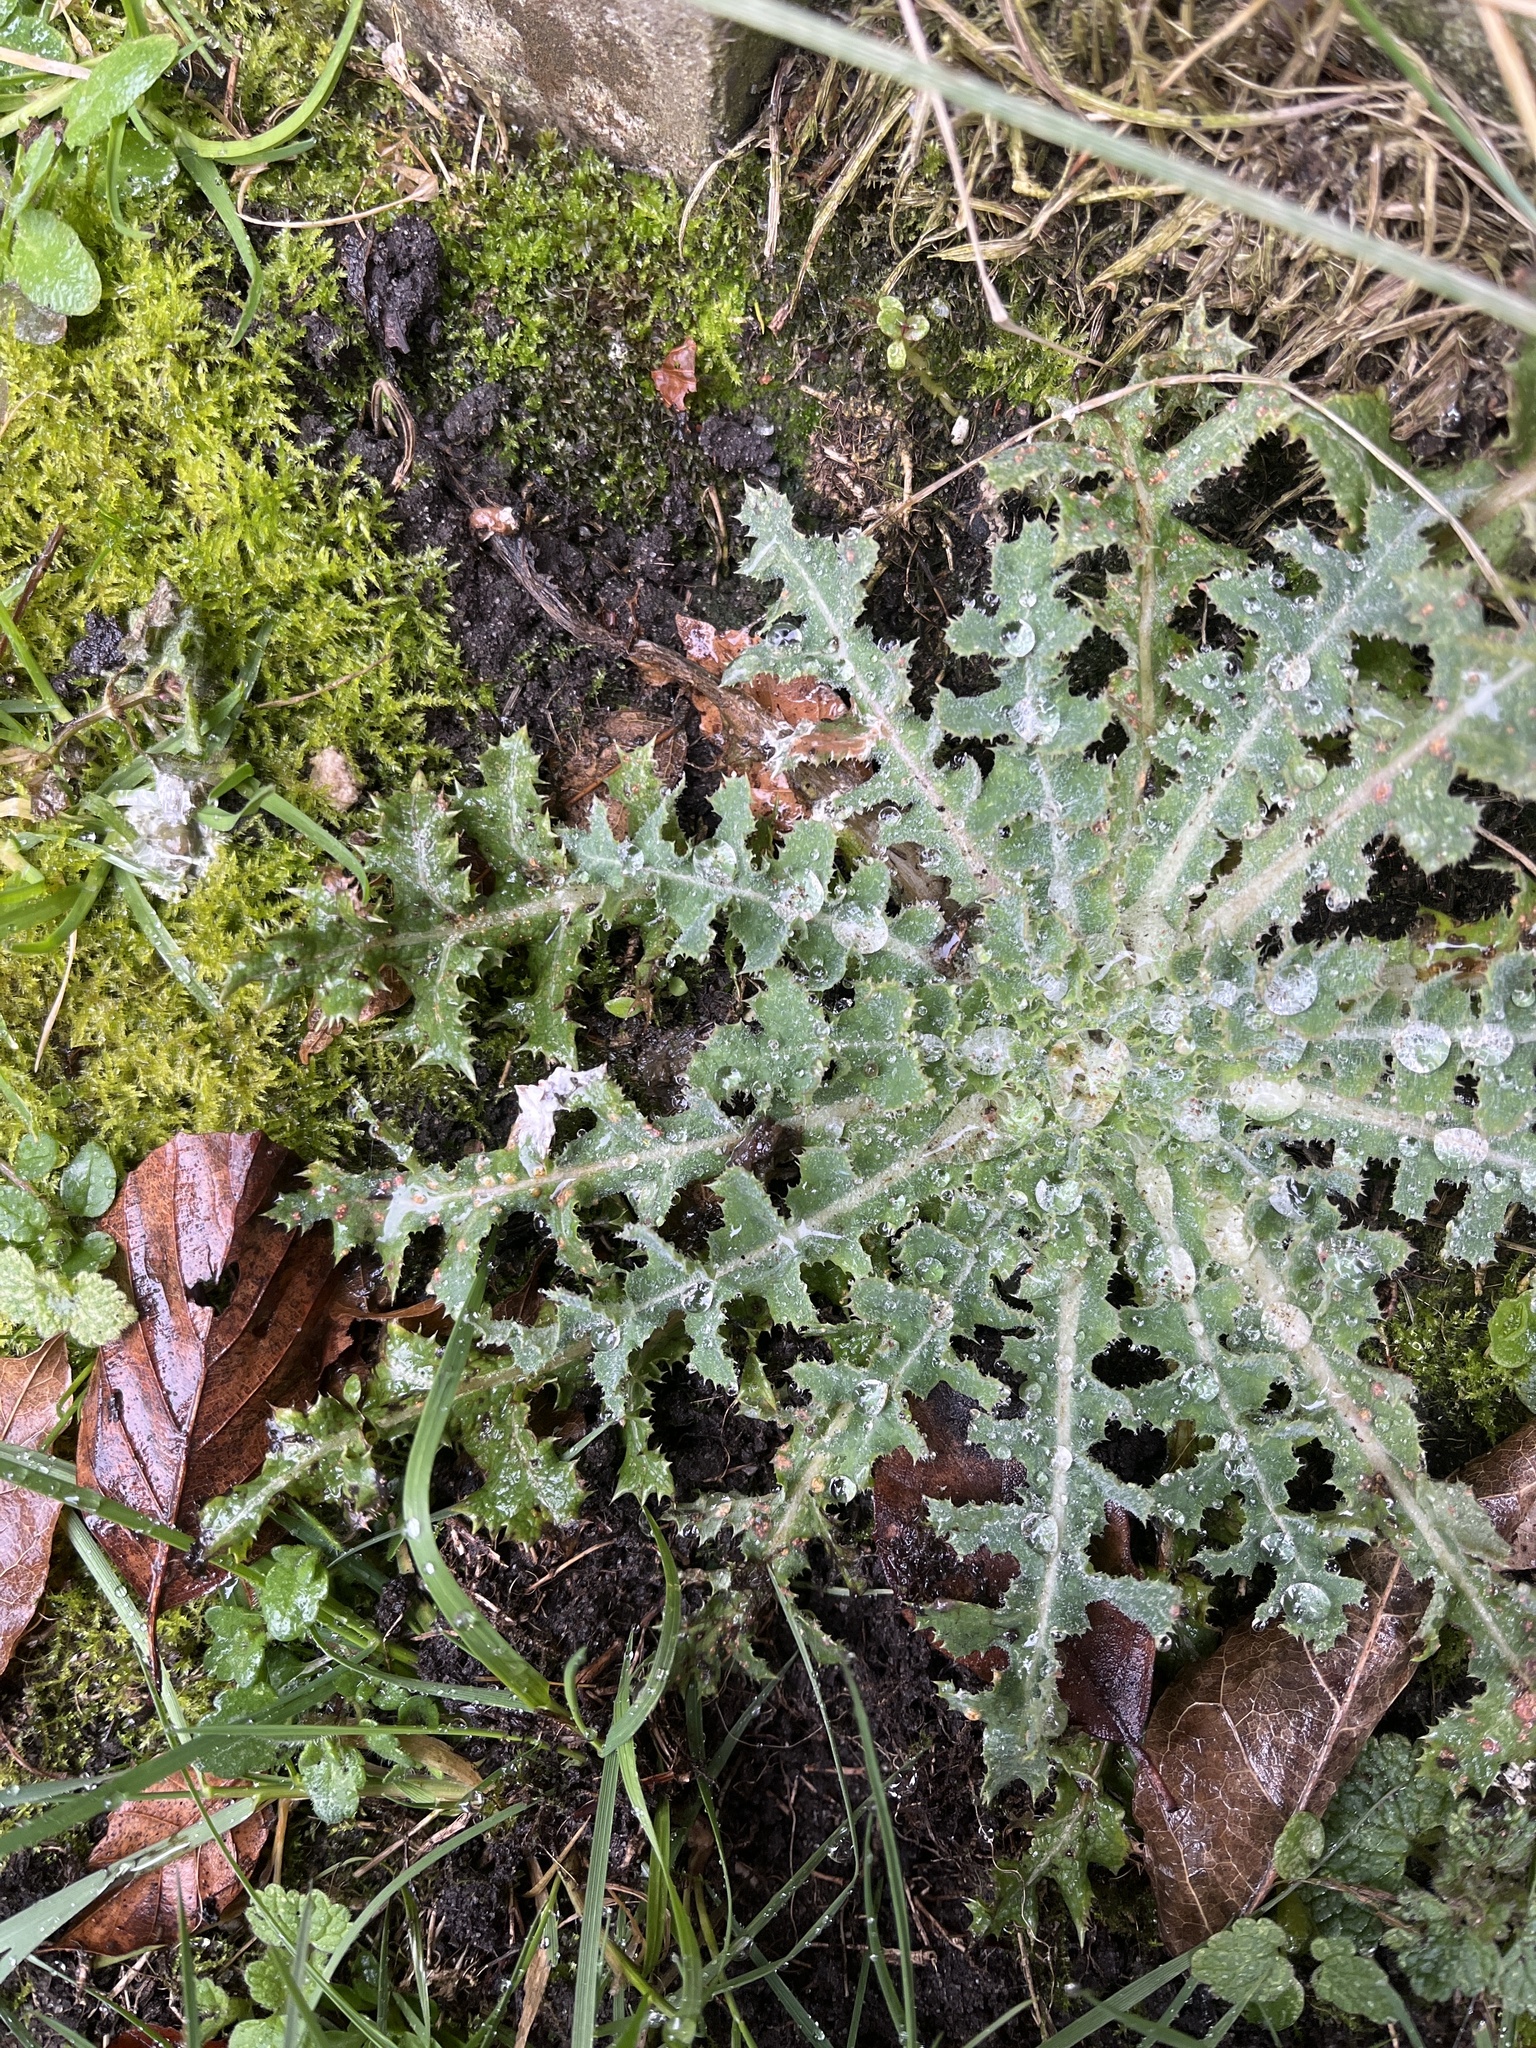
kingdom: Plantae
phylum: Tracheophyta
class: Magnoliopsida
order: Asterales
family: Asteraceae
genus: Sonchus
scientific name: Sonchus asper
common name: Prickly sow-thistle
